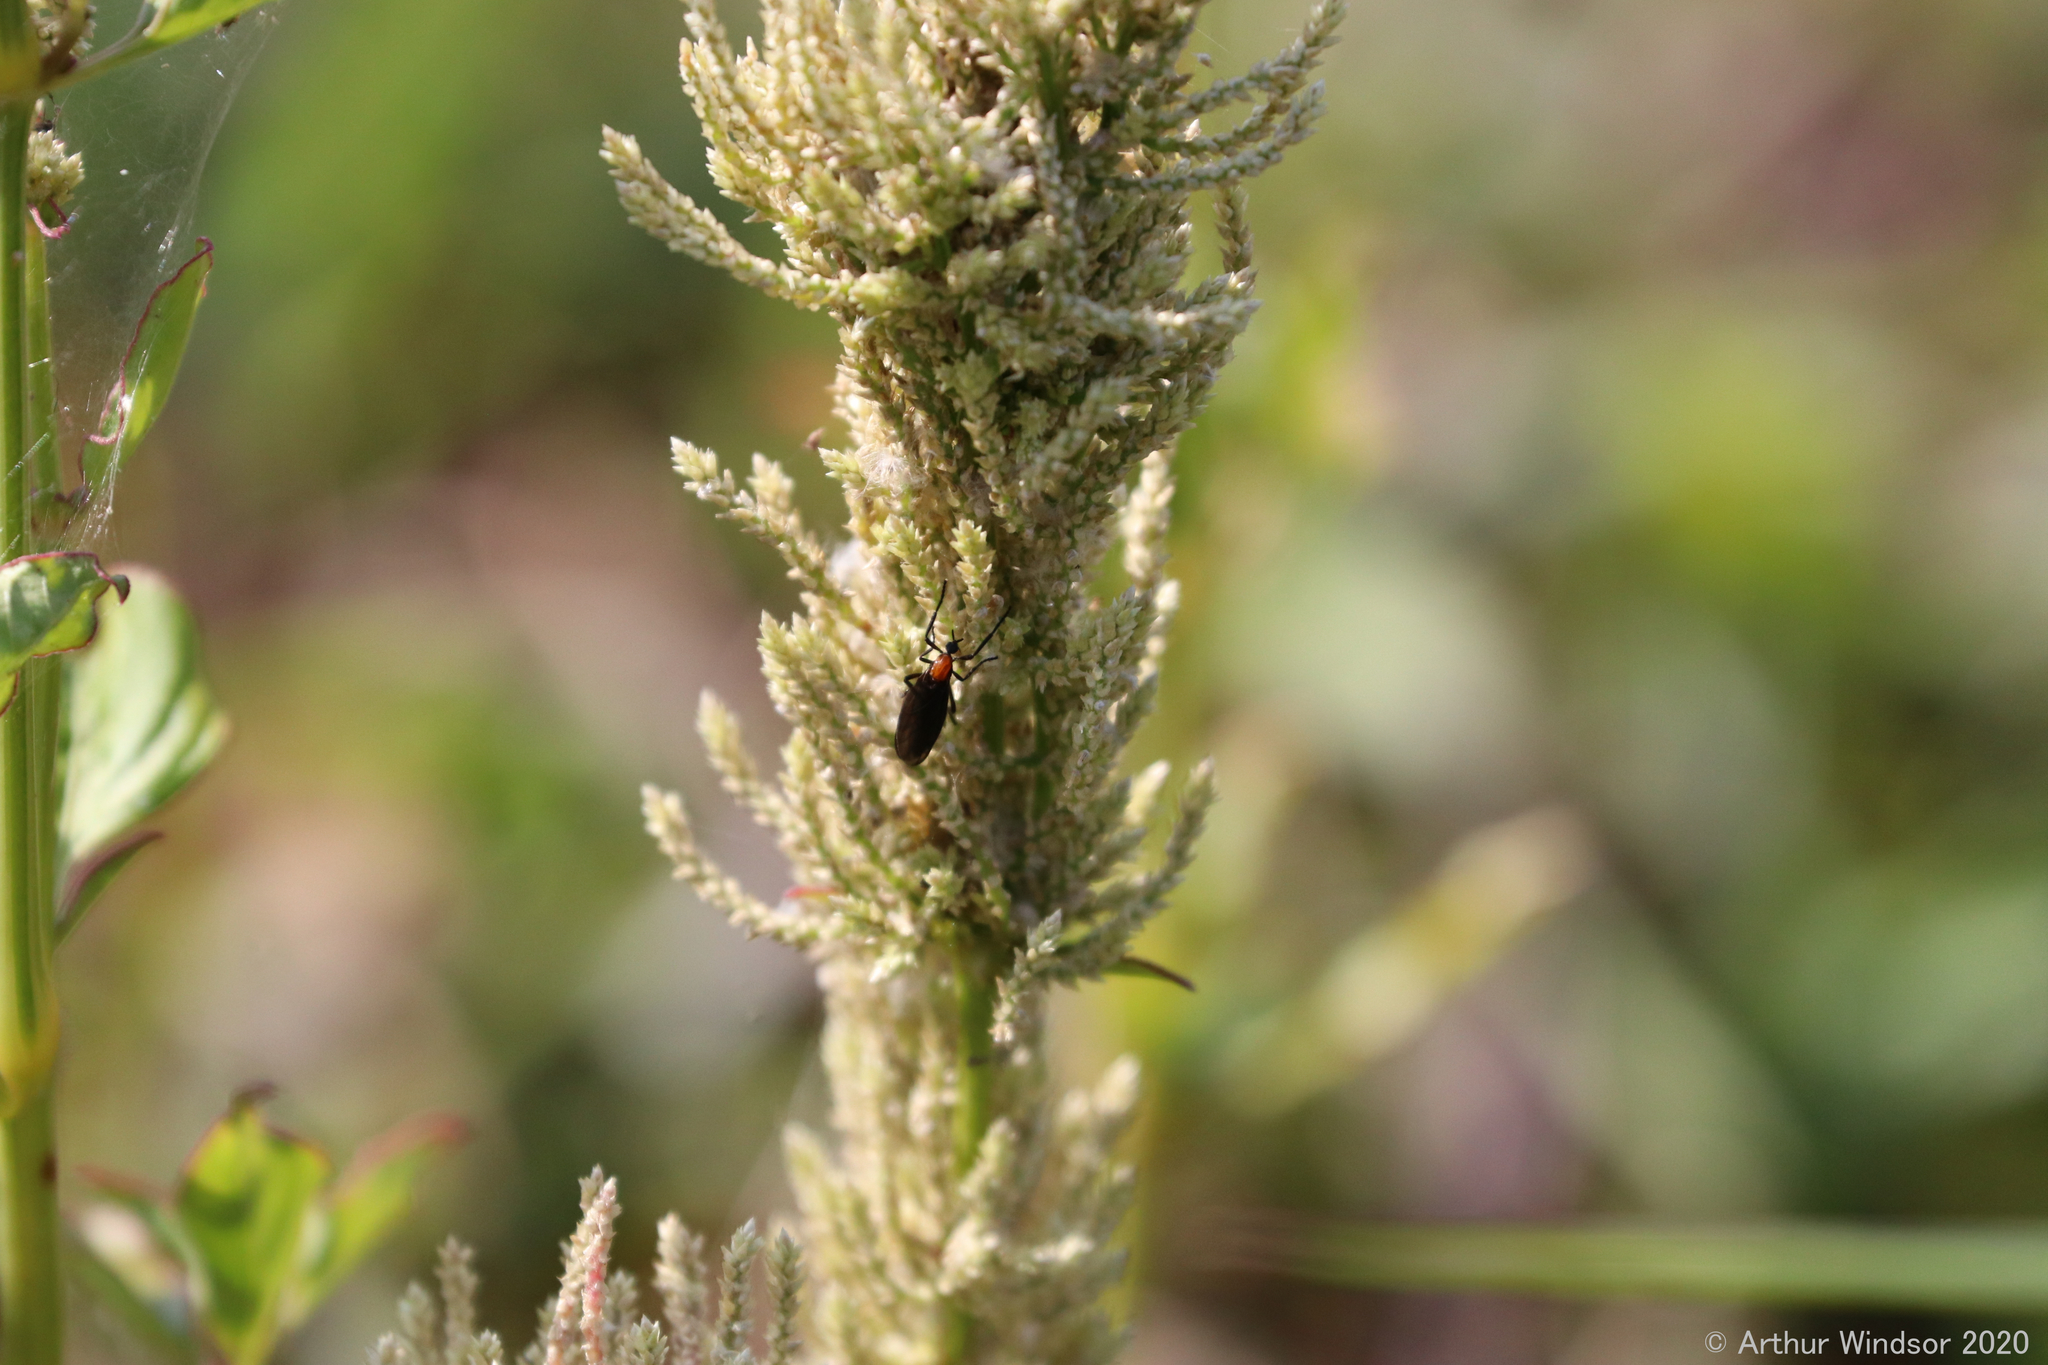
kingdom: Animalia
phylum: Arthropoda
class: Insecta
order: Diptera
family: Bibionidae
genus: Plecia
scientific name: Plecia nearctica
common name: March fly
